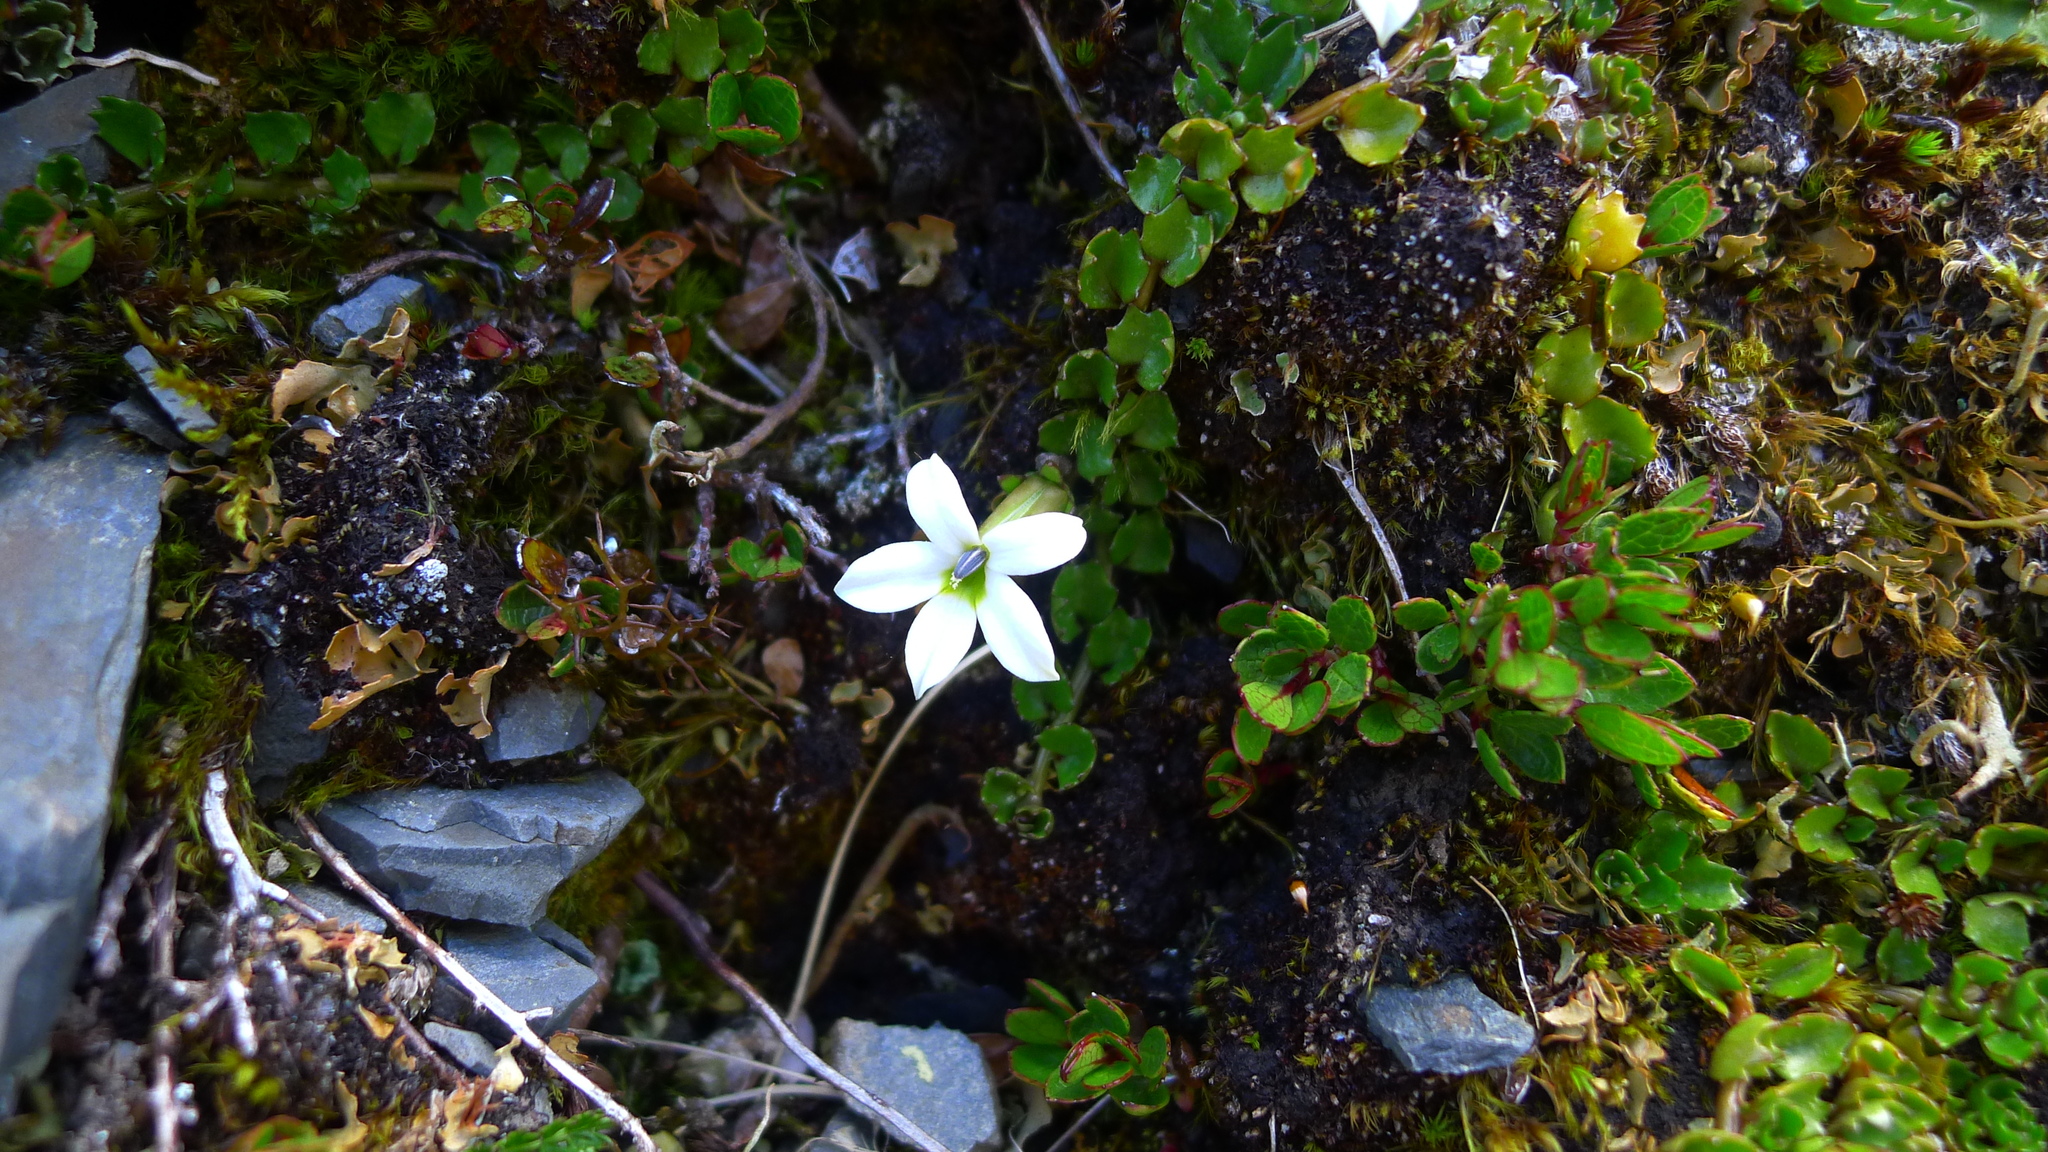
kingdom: Plantae
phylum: Tracheophyta
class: Magnoliopsida
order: Asterales
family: Campanulaceae
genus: Lobelia
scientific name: Lobelia macrodon
